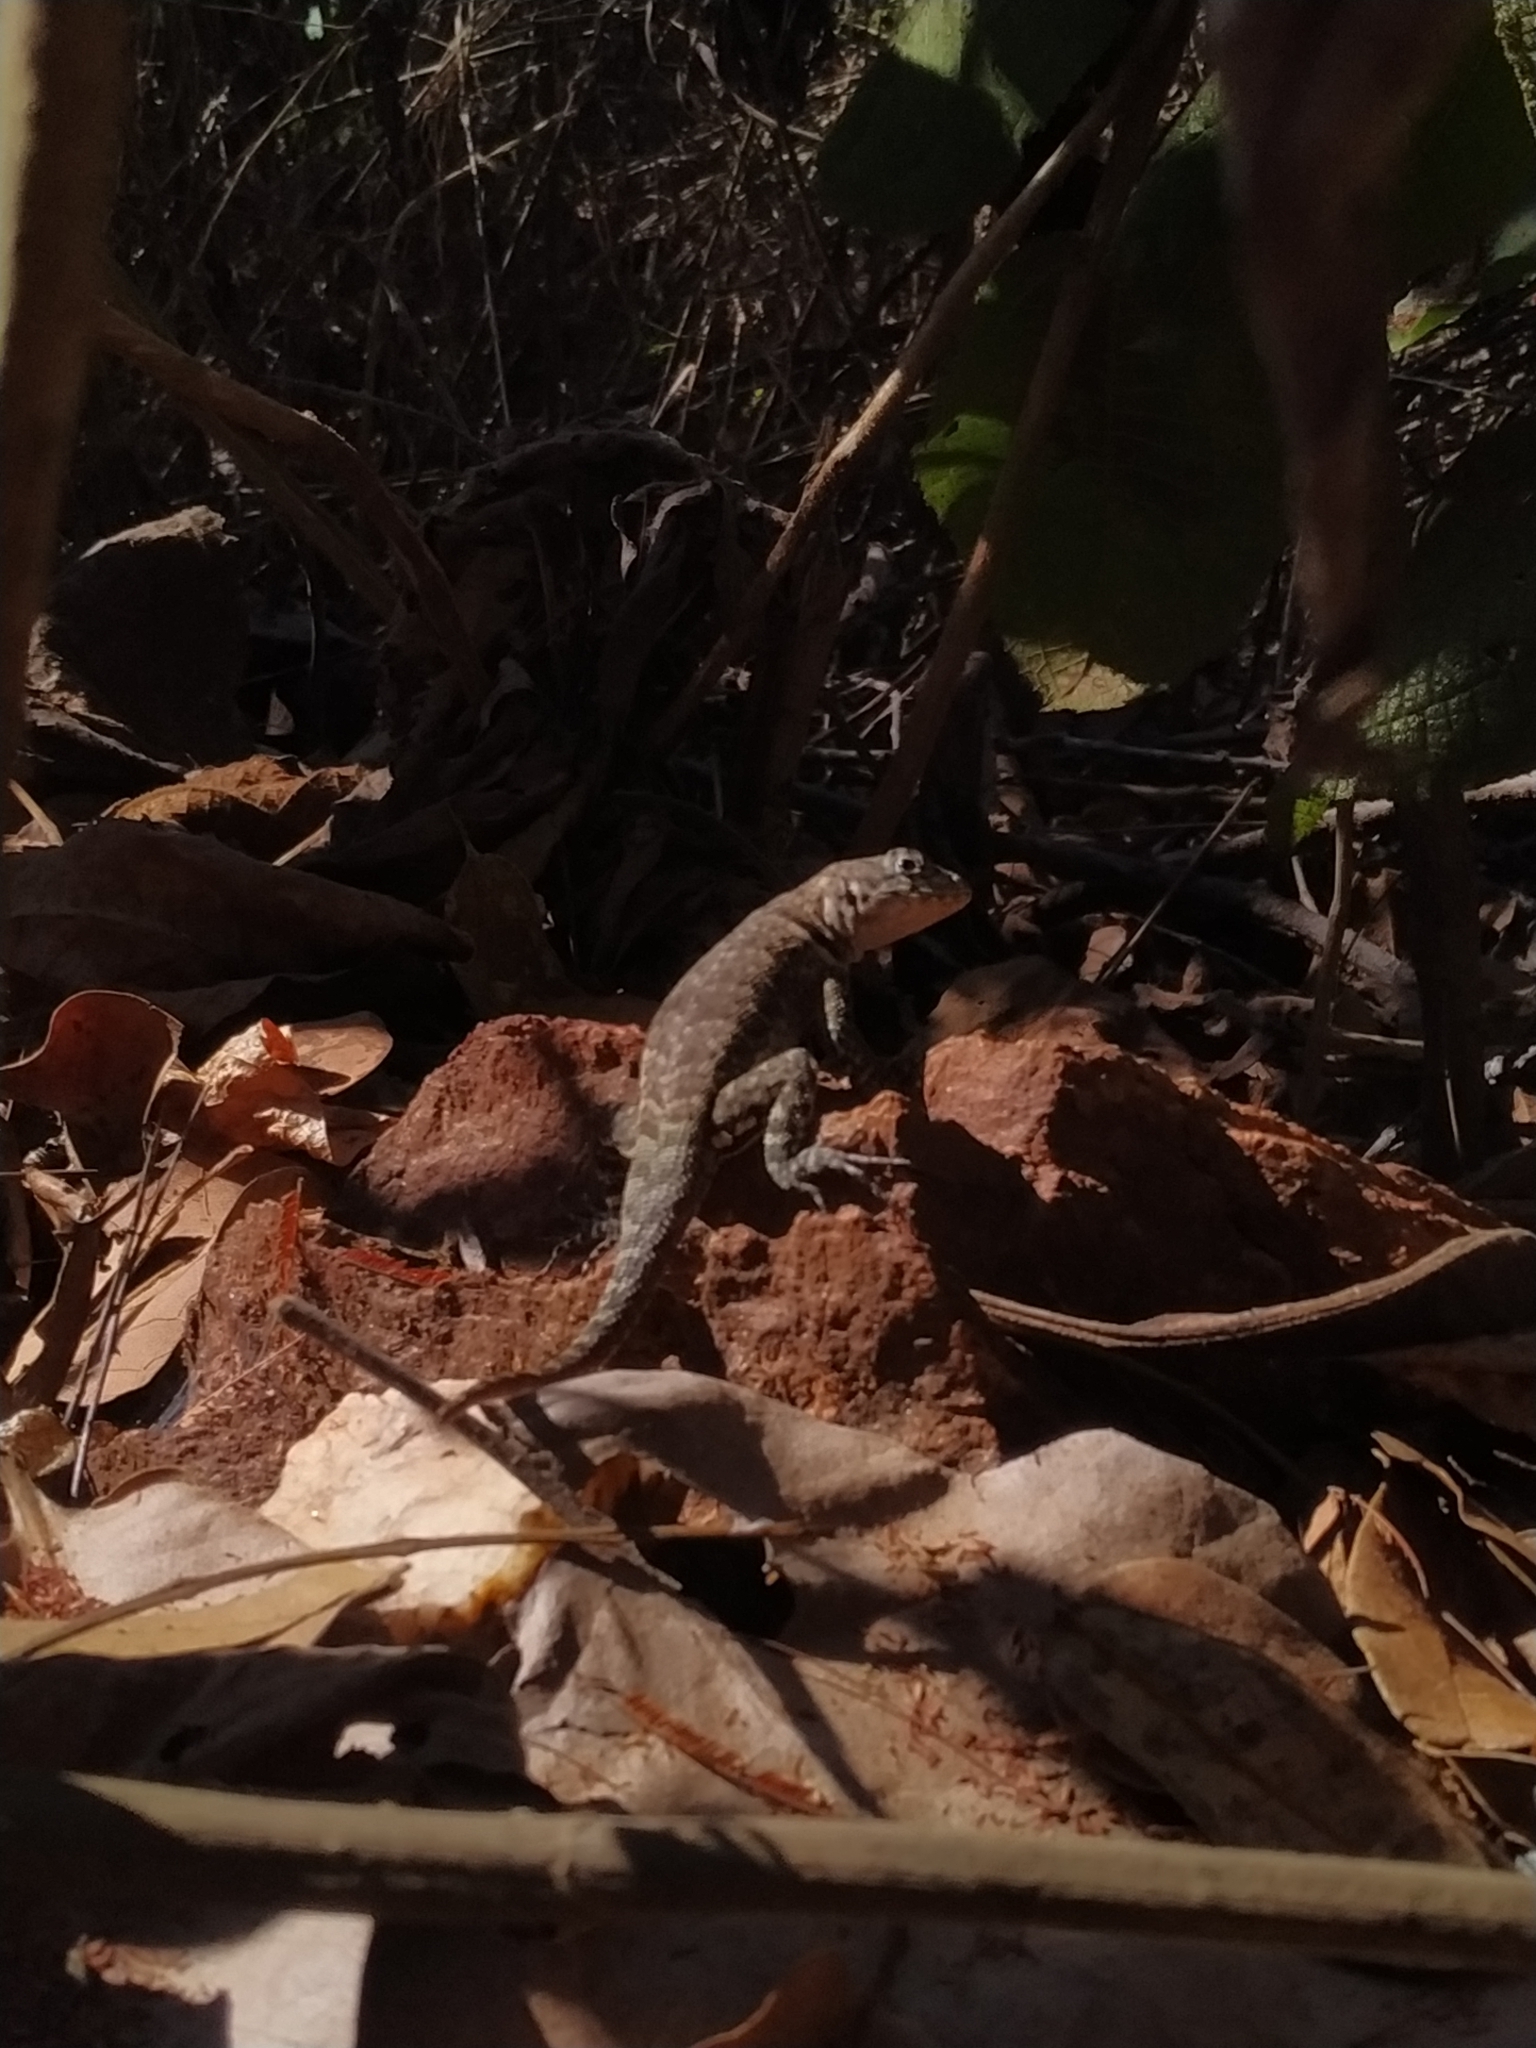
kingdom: Animalia
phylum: Chordata
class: Squamata
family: Tropiduridae
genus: Tropidurus
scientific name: Tropidurus hispidus
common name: Peters' lava lizard
